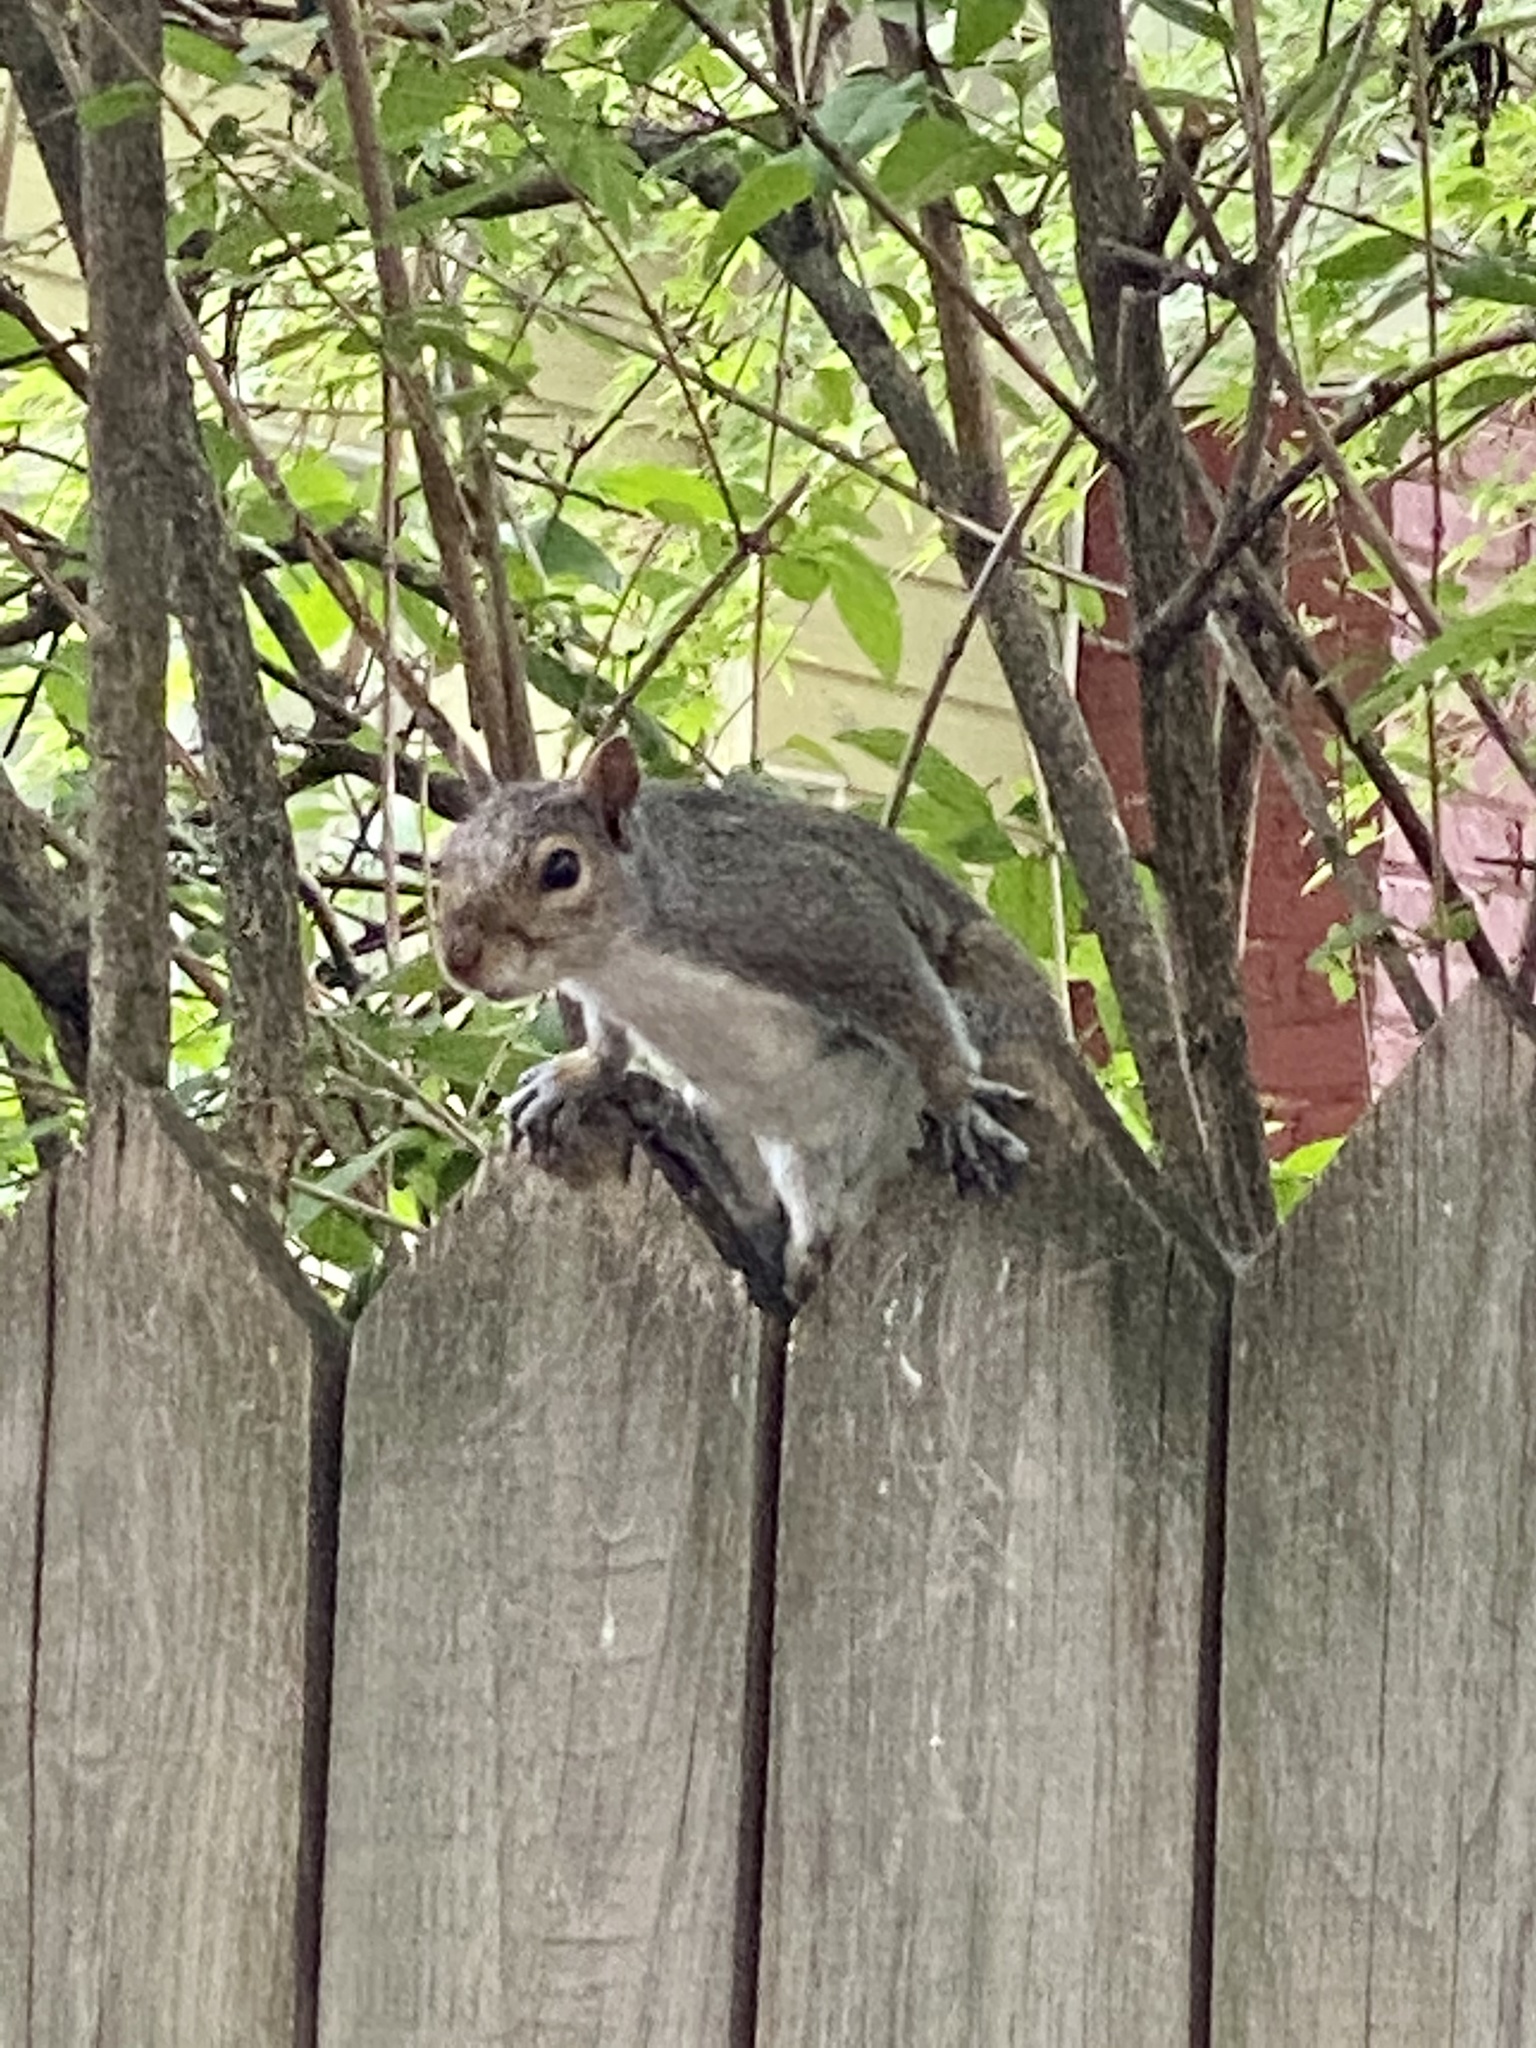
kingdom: Animalia
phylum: Chordata
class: Mammalia
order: Rodentia
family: Sciuridae
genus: Sciurus
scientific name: Sciurus carolinensis
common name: Eastern gray squirrel
